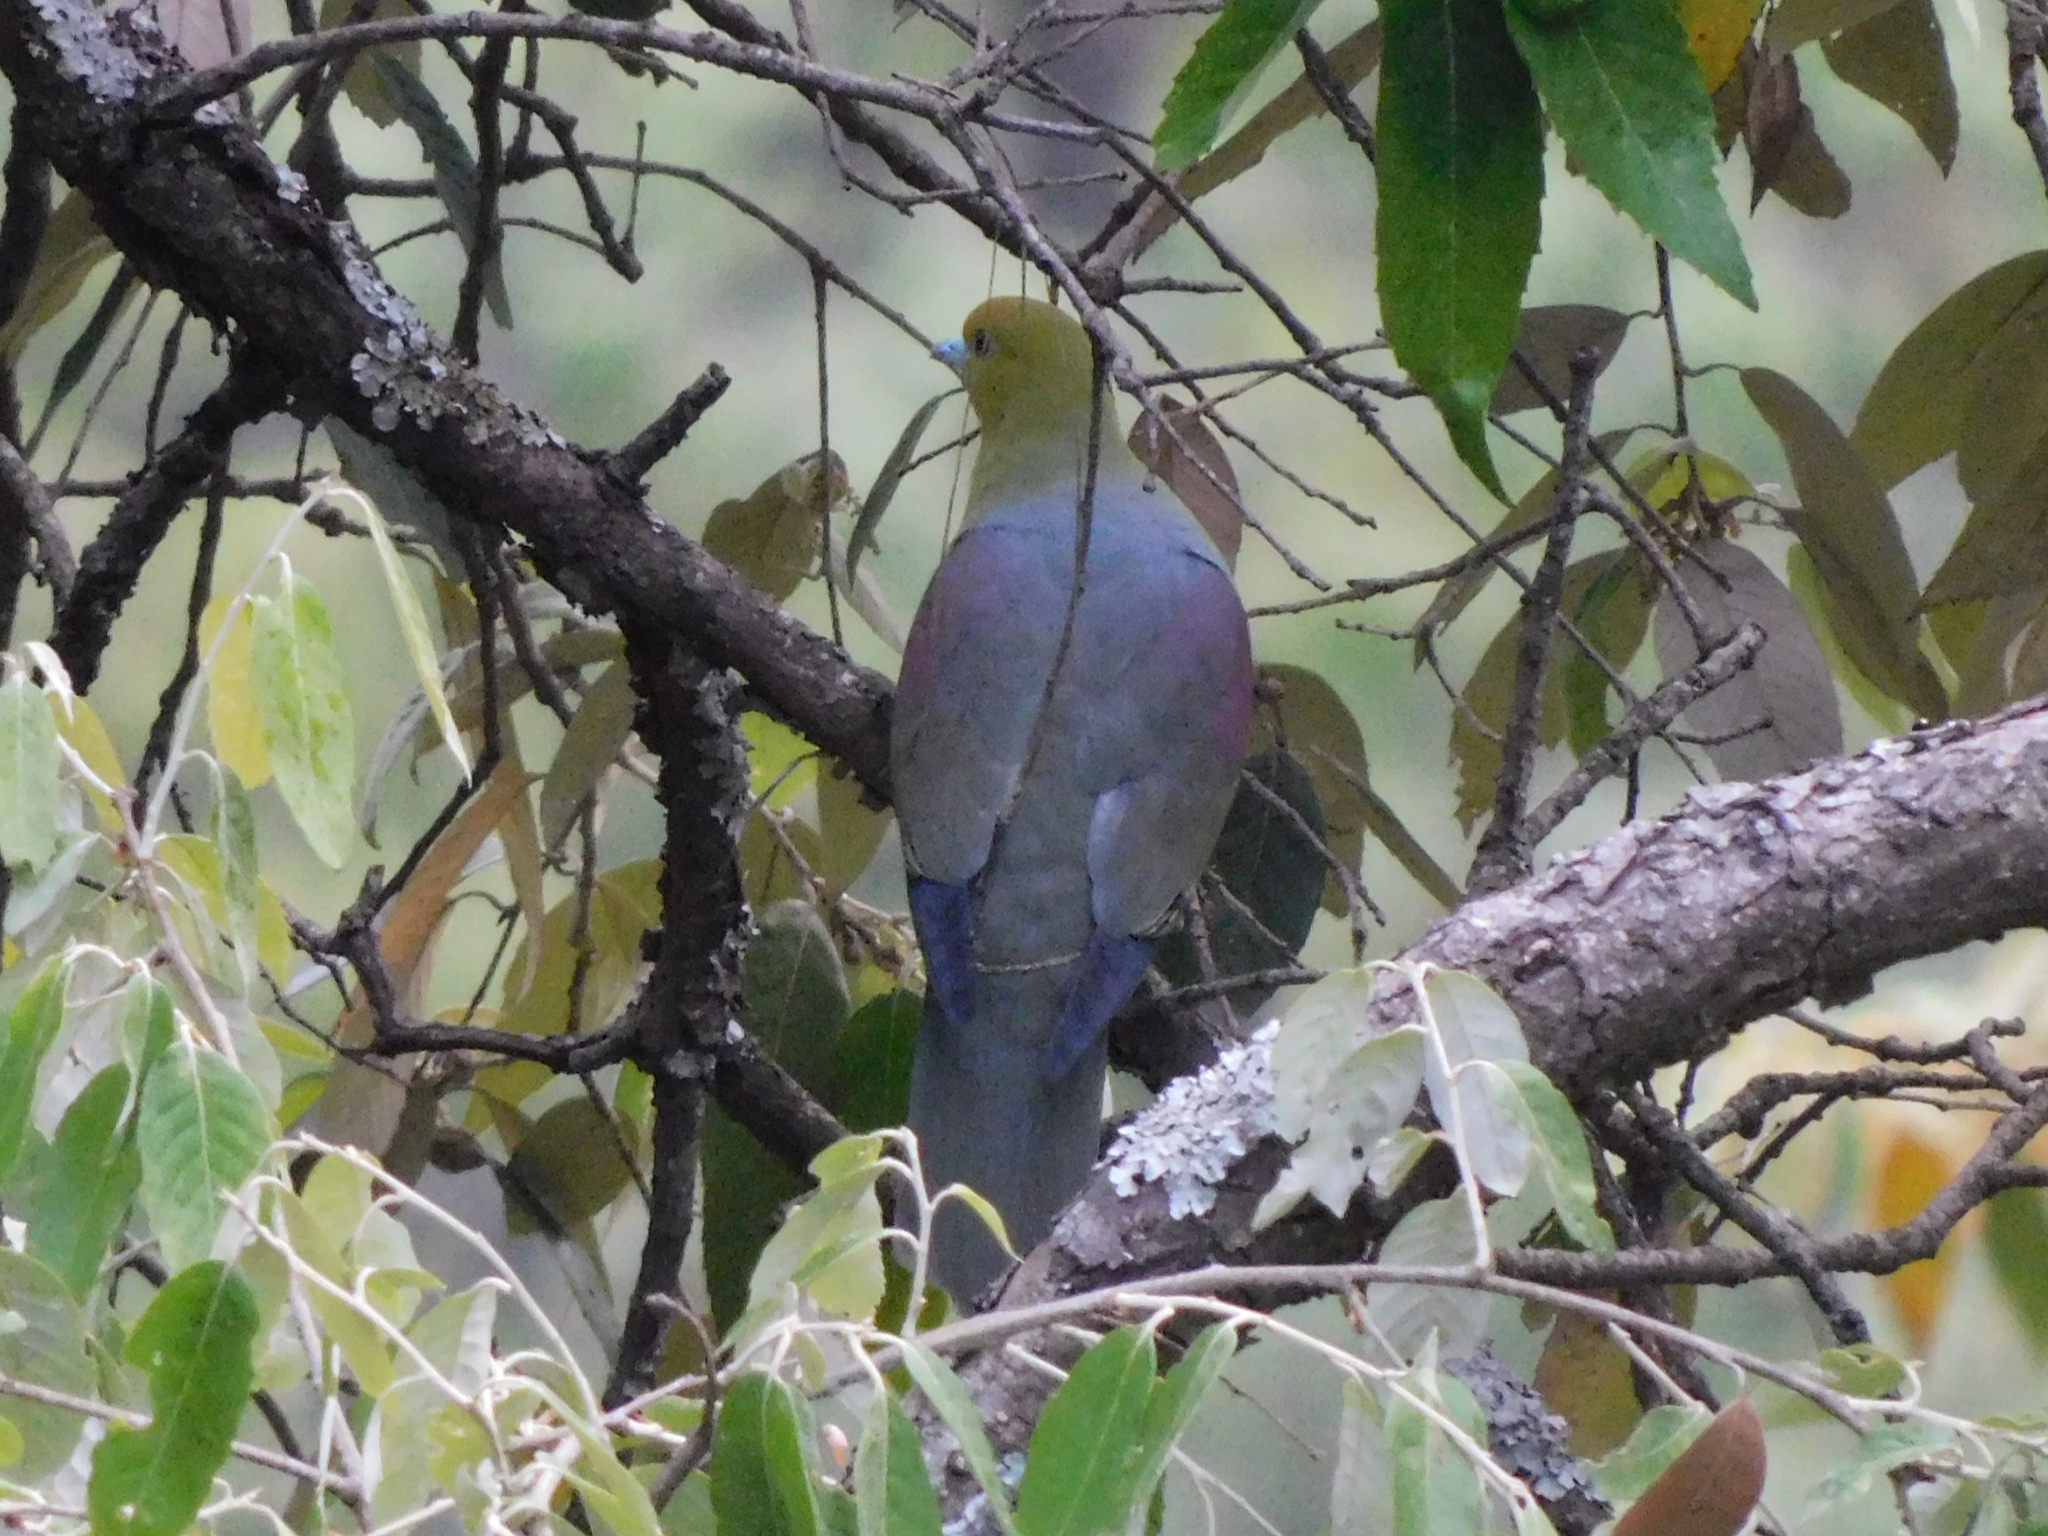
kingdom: Animalia
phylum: Chordata
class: Aves
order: Columbiformes
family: Columbidae
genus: Treron
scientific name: Treron sphenurus
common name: Wedge-tailed green pigeon
